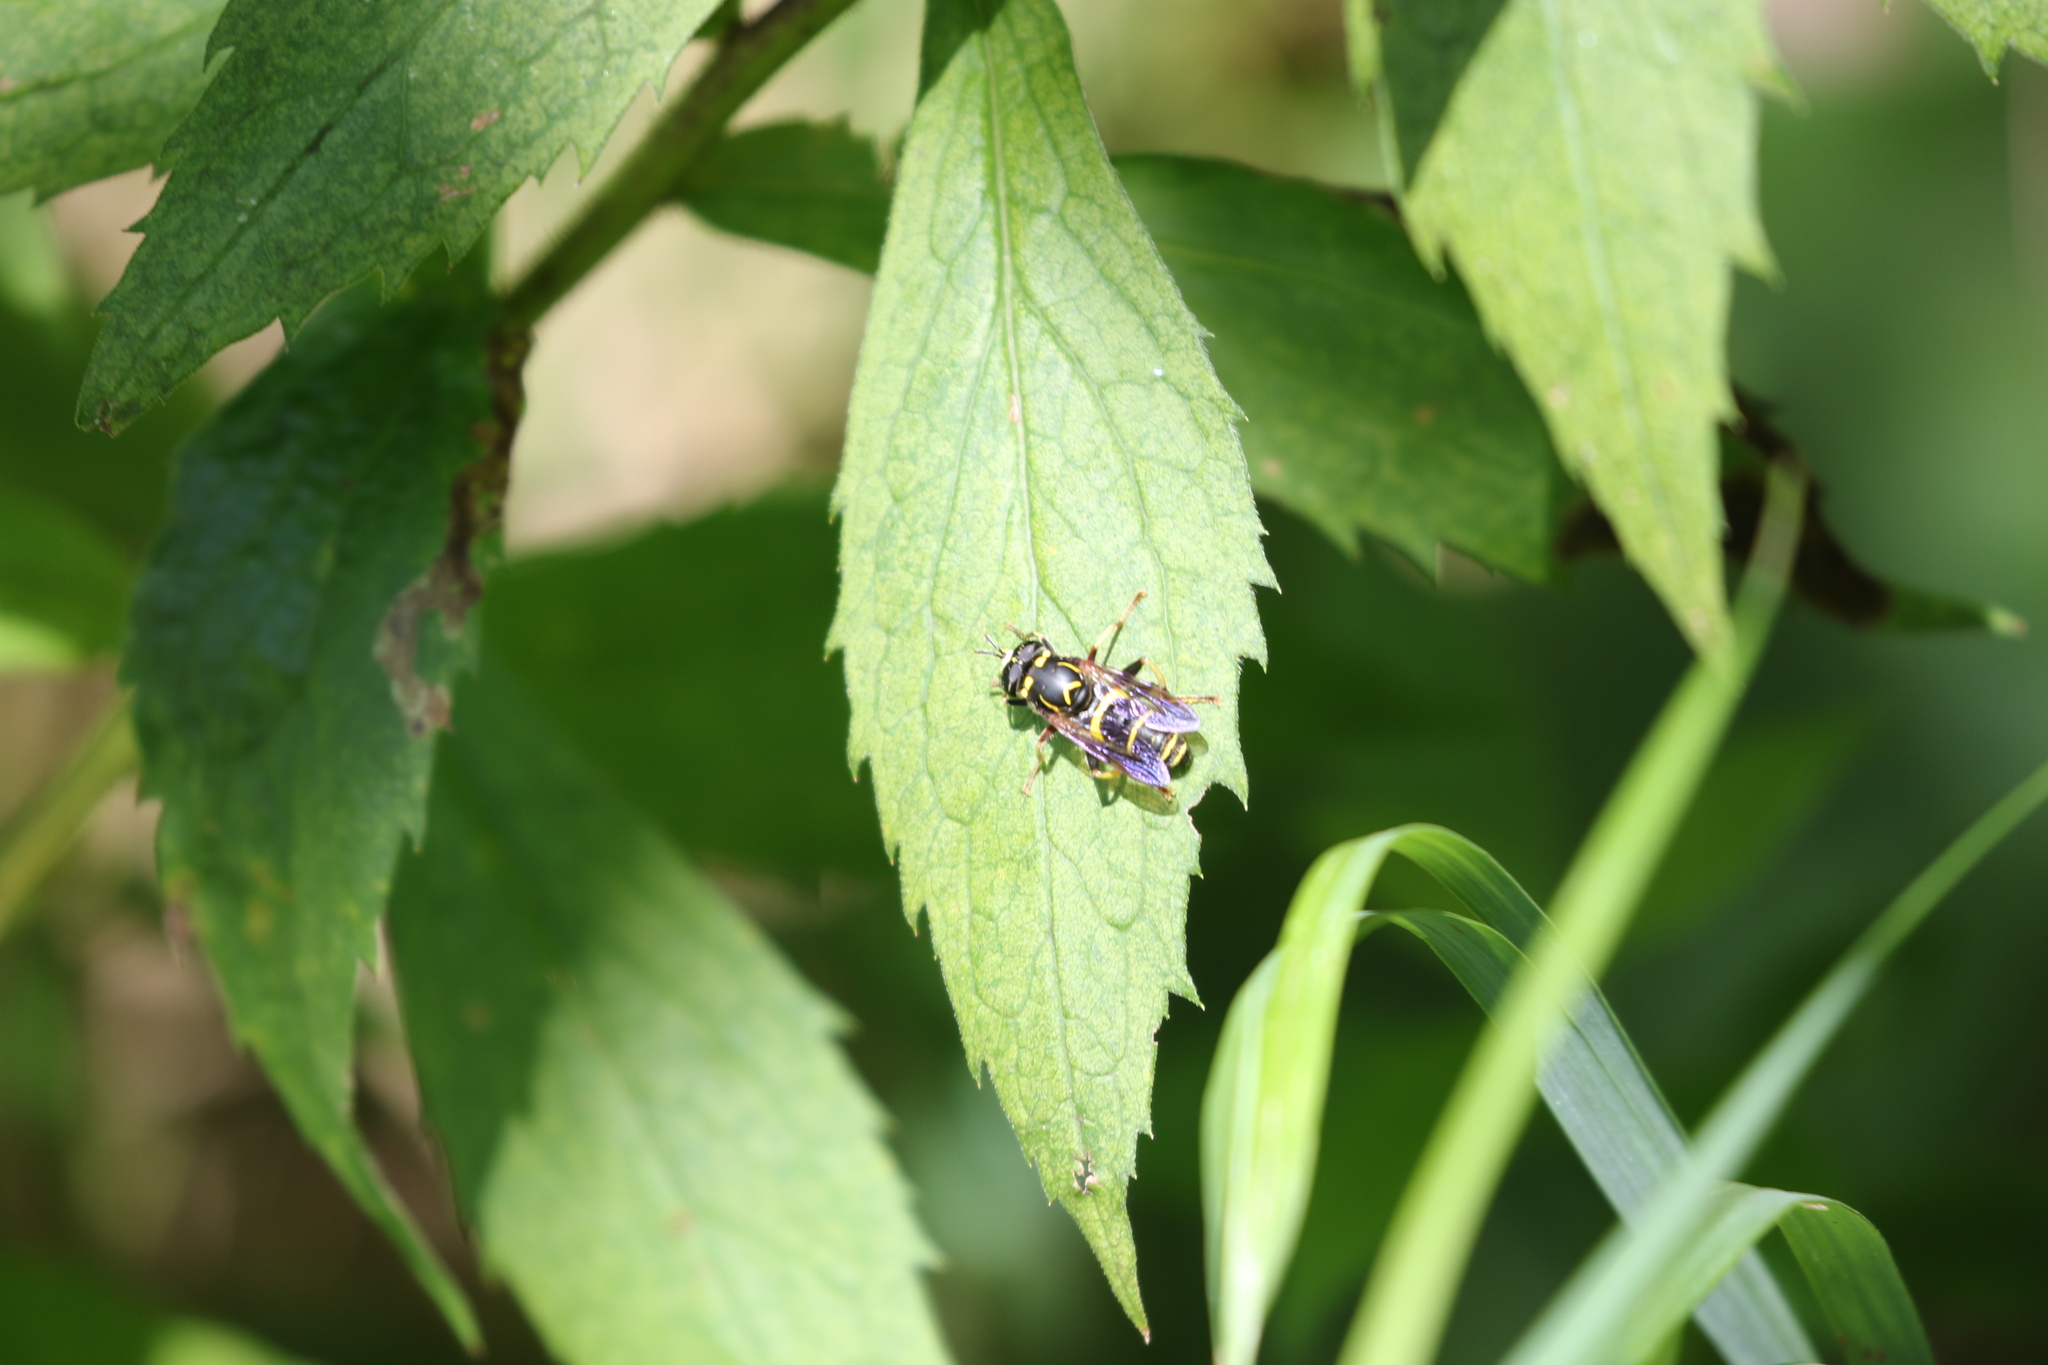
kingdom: Animalia
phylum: Arthropoda
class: Insecta
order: Diptera
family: Syrphidae
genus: Spilomyia
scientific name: Spilomyia sayi
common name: Four-lined hornet fly
